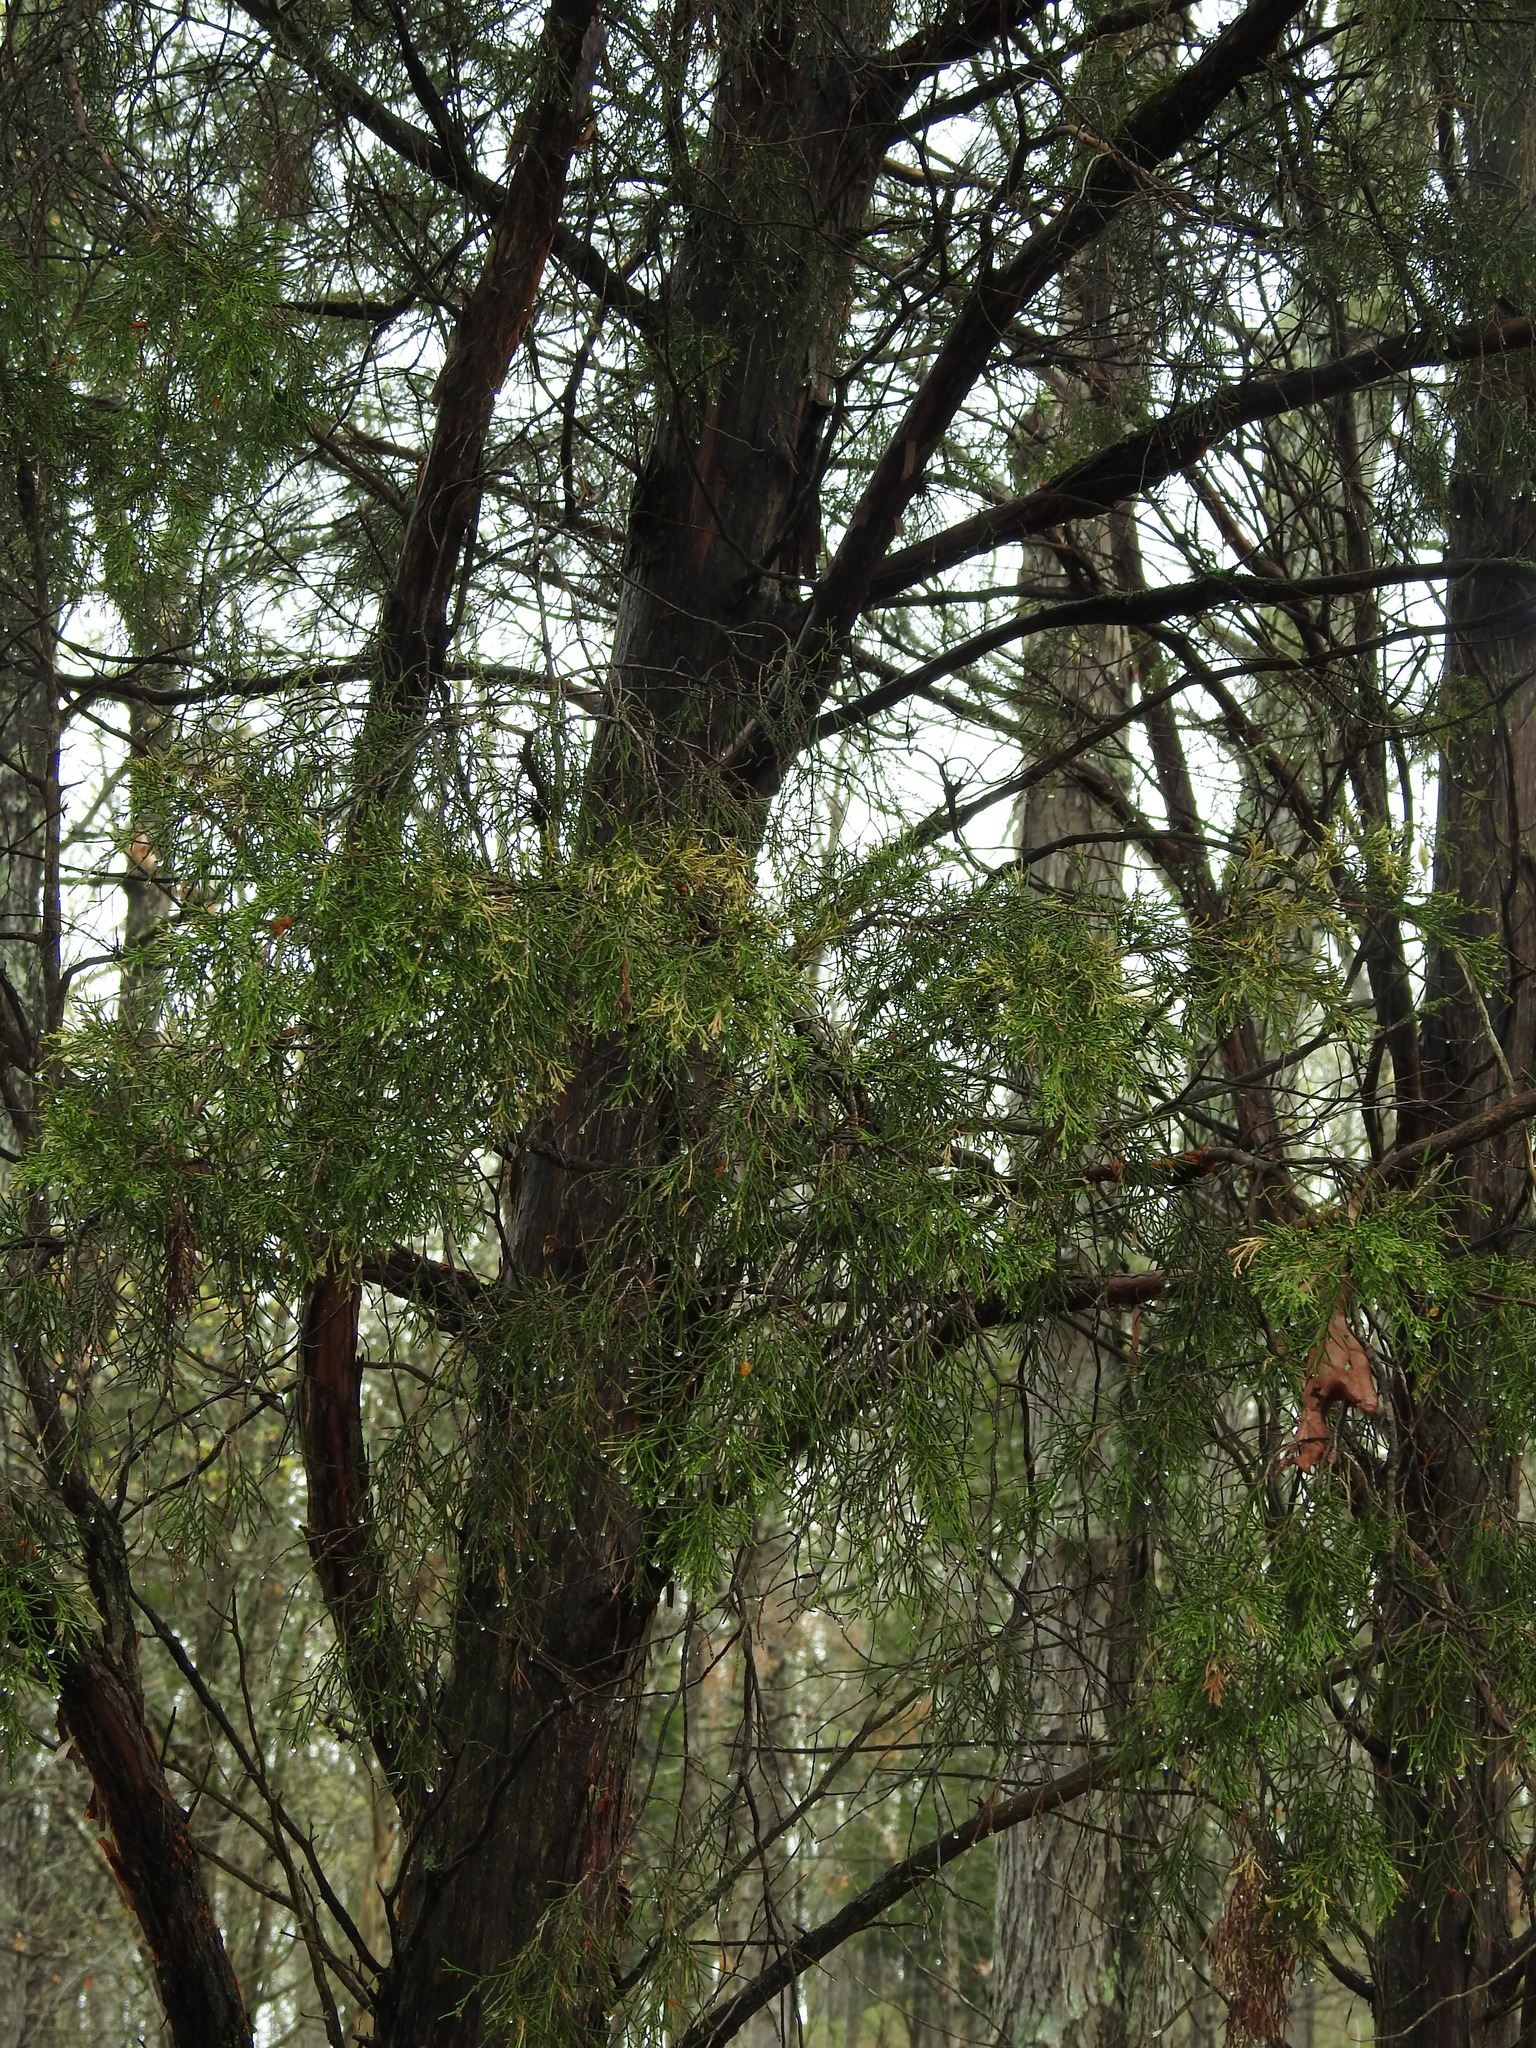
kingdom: Plantae
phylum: Tracheophyta
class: Pinopsida
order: Pinales
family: Cupressaceae
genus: Juniperus
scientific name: Juniperus virginiana
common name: Red juniper
